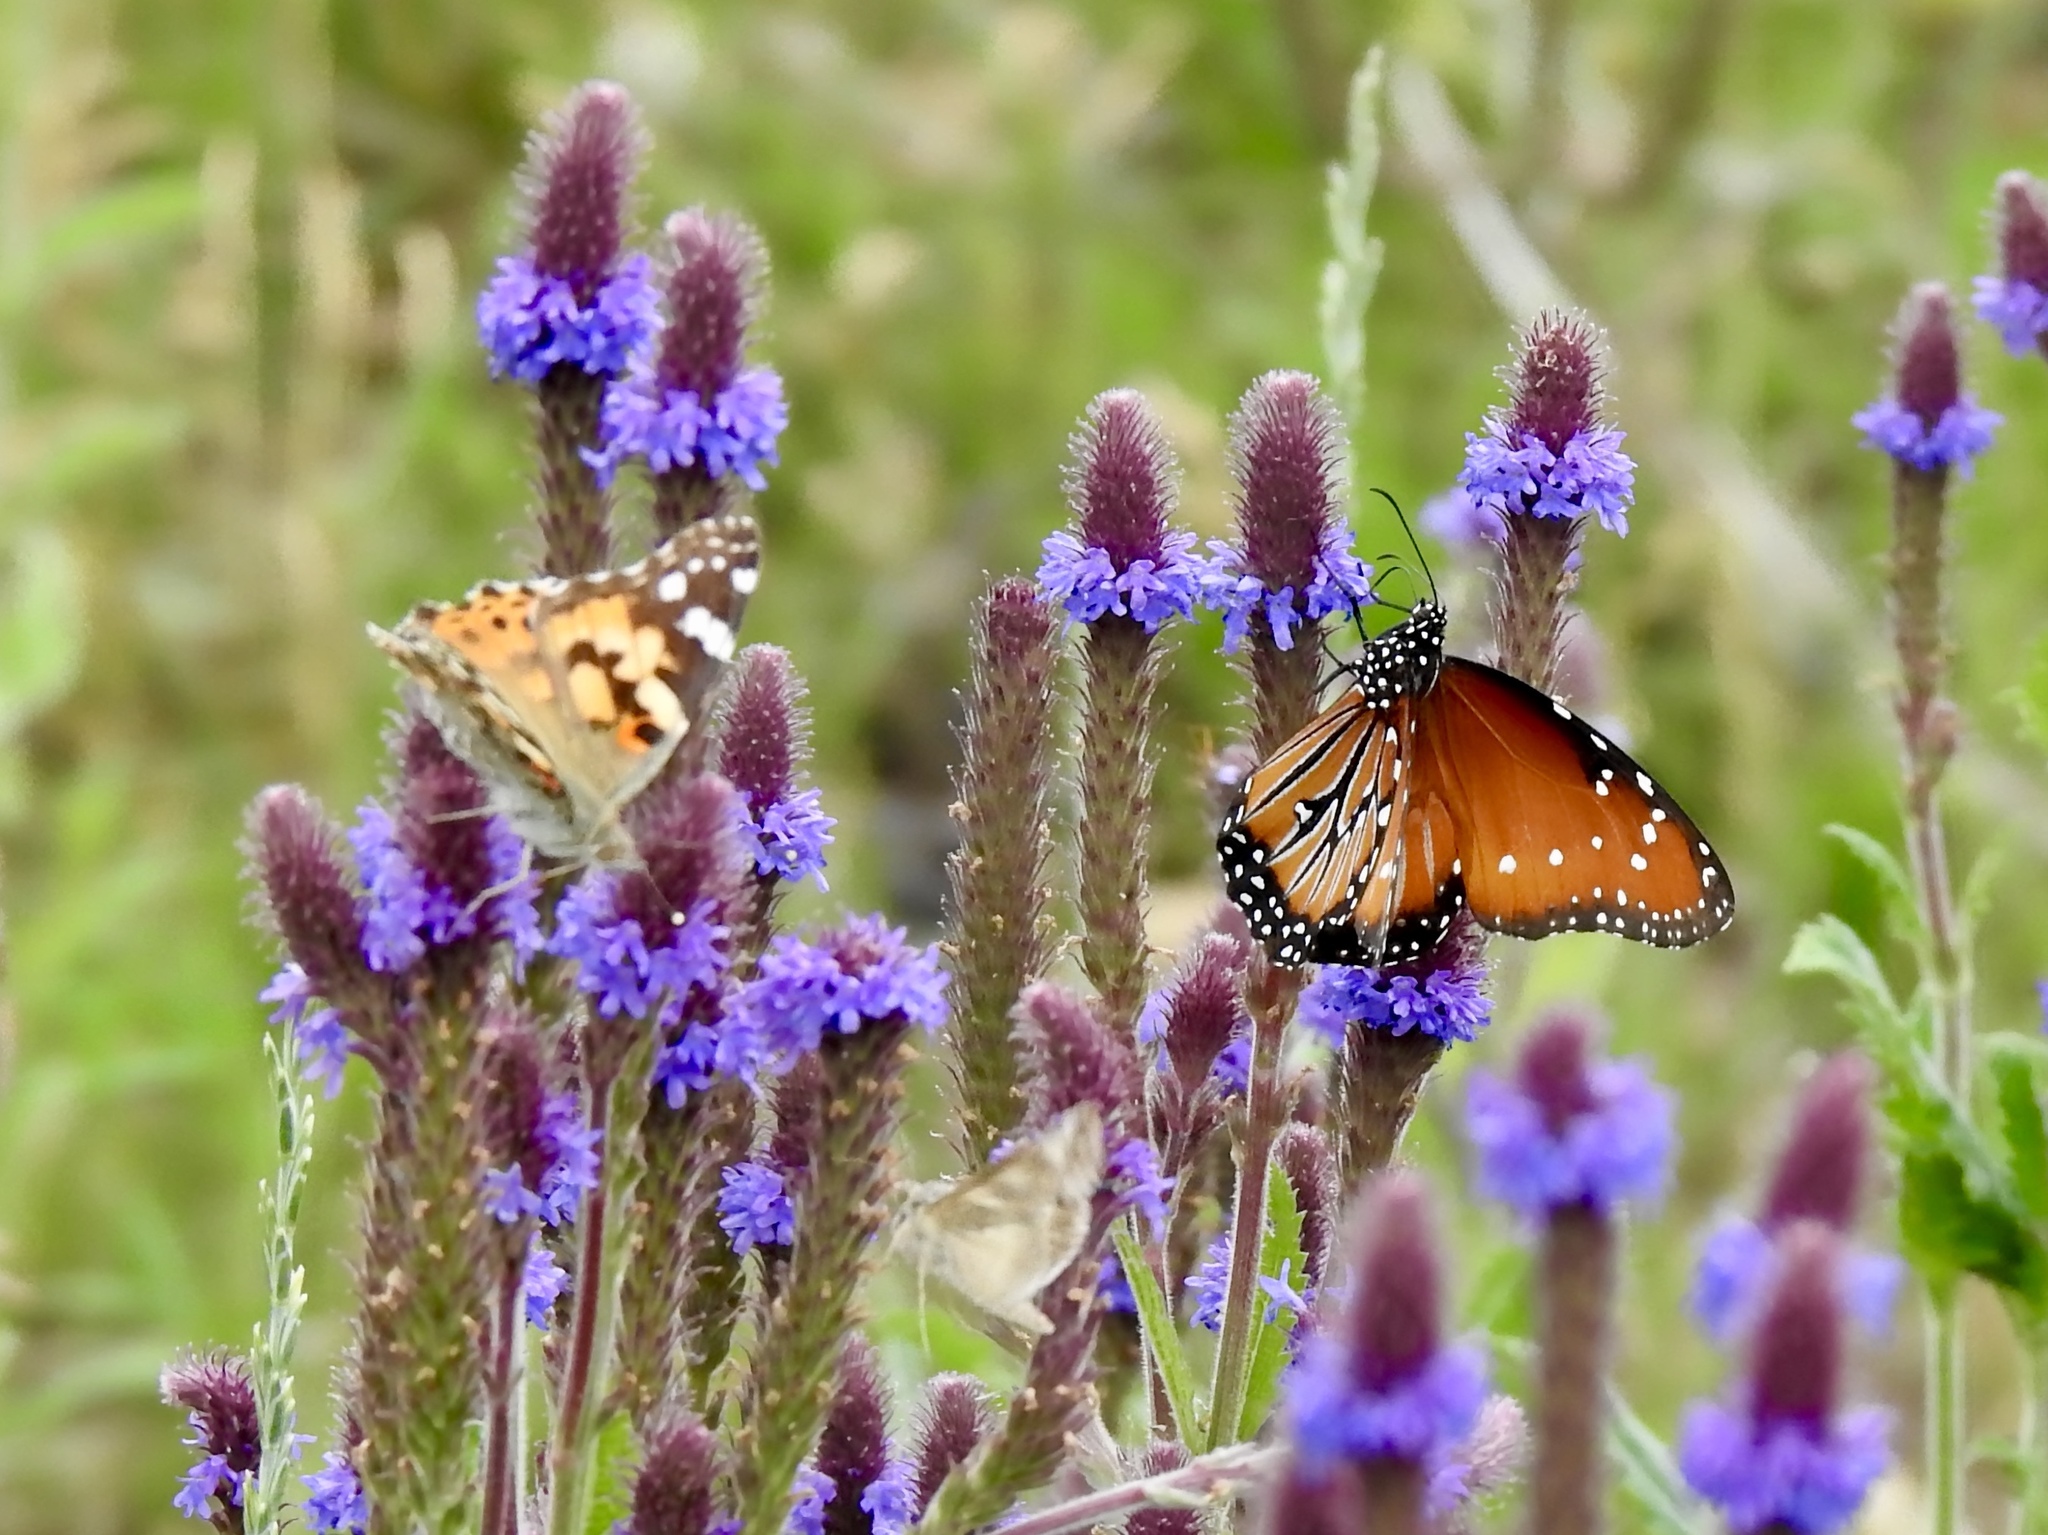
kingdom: Animalia
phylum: Arthropoda
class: Insecta
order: Lepidoptera
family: Nymphalidae
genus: Danaus
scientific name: Danaus gilippus
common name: Queen
